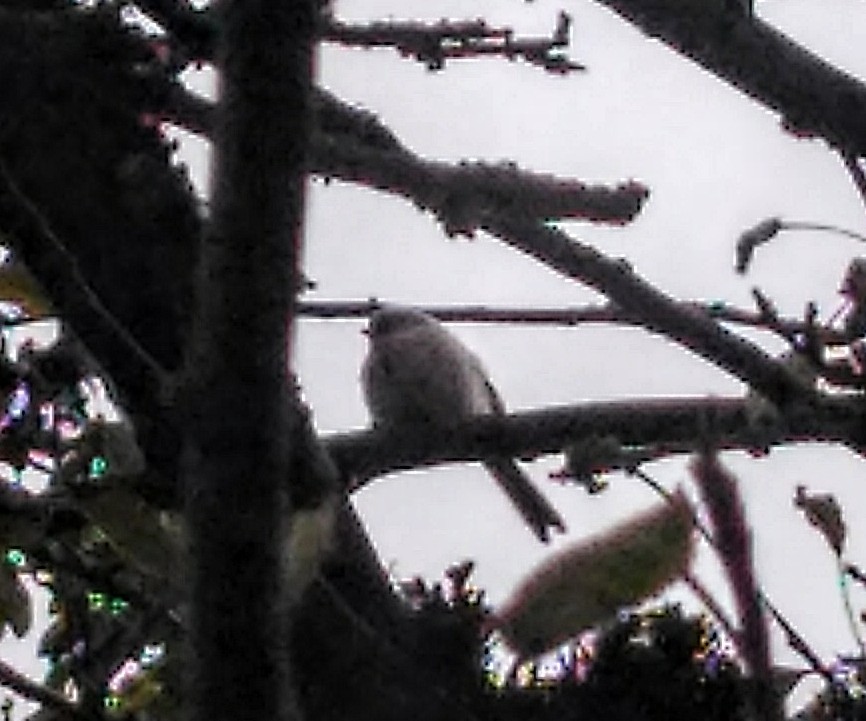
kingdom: Animalia
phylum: Chordata
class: Aves
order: Passeriformes
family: Aegithalidae
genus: Psaltriparus
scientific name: Psaltriparus minimus
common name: American bushtit
